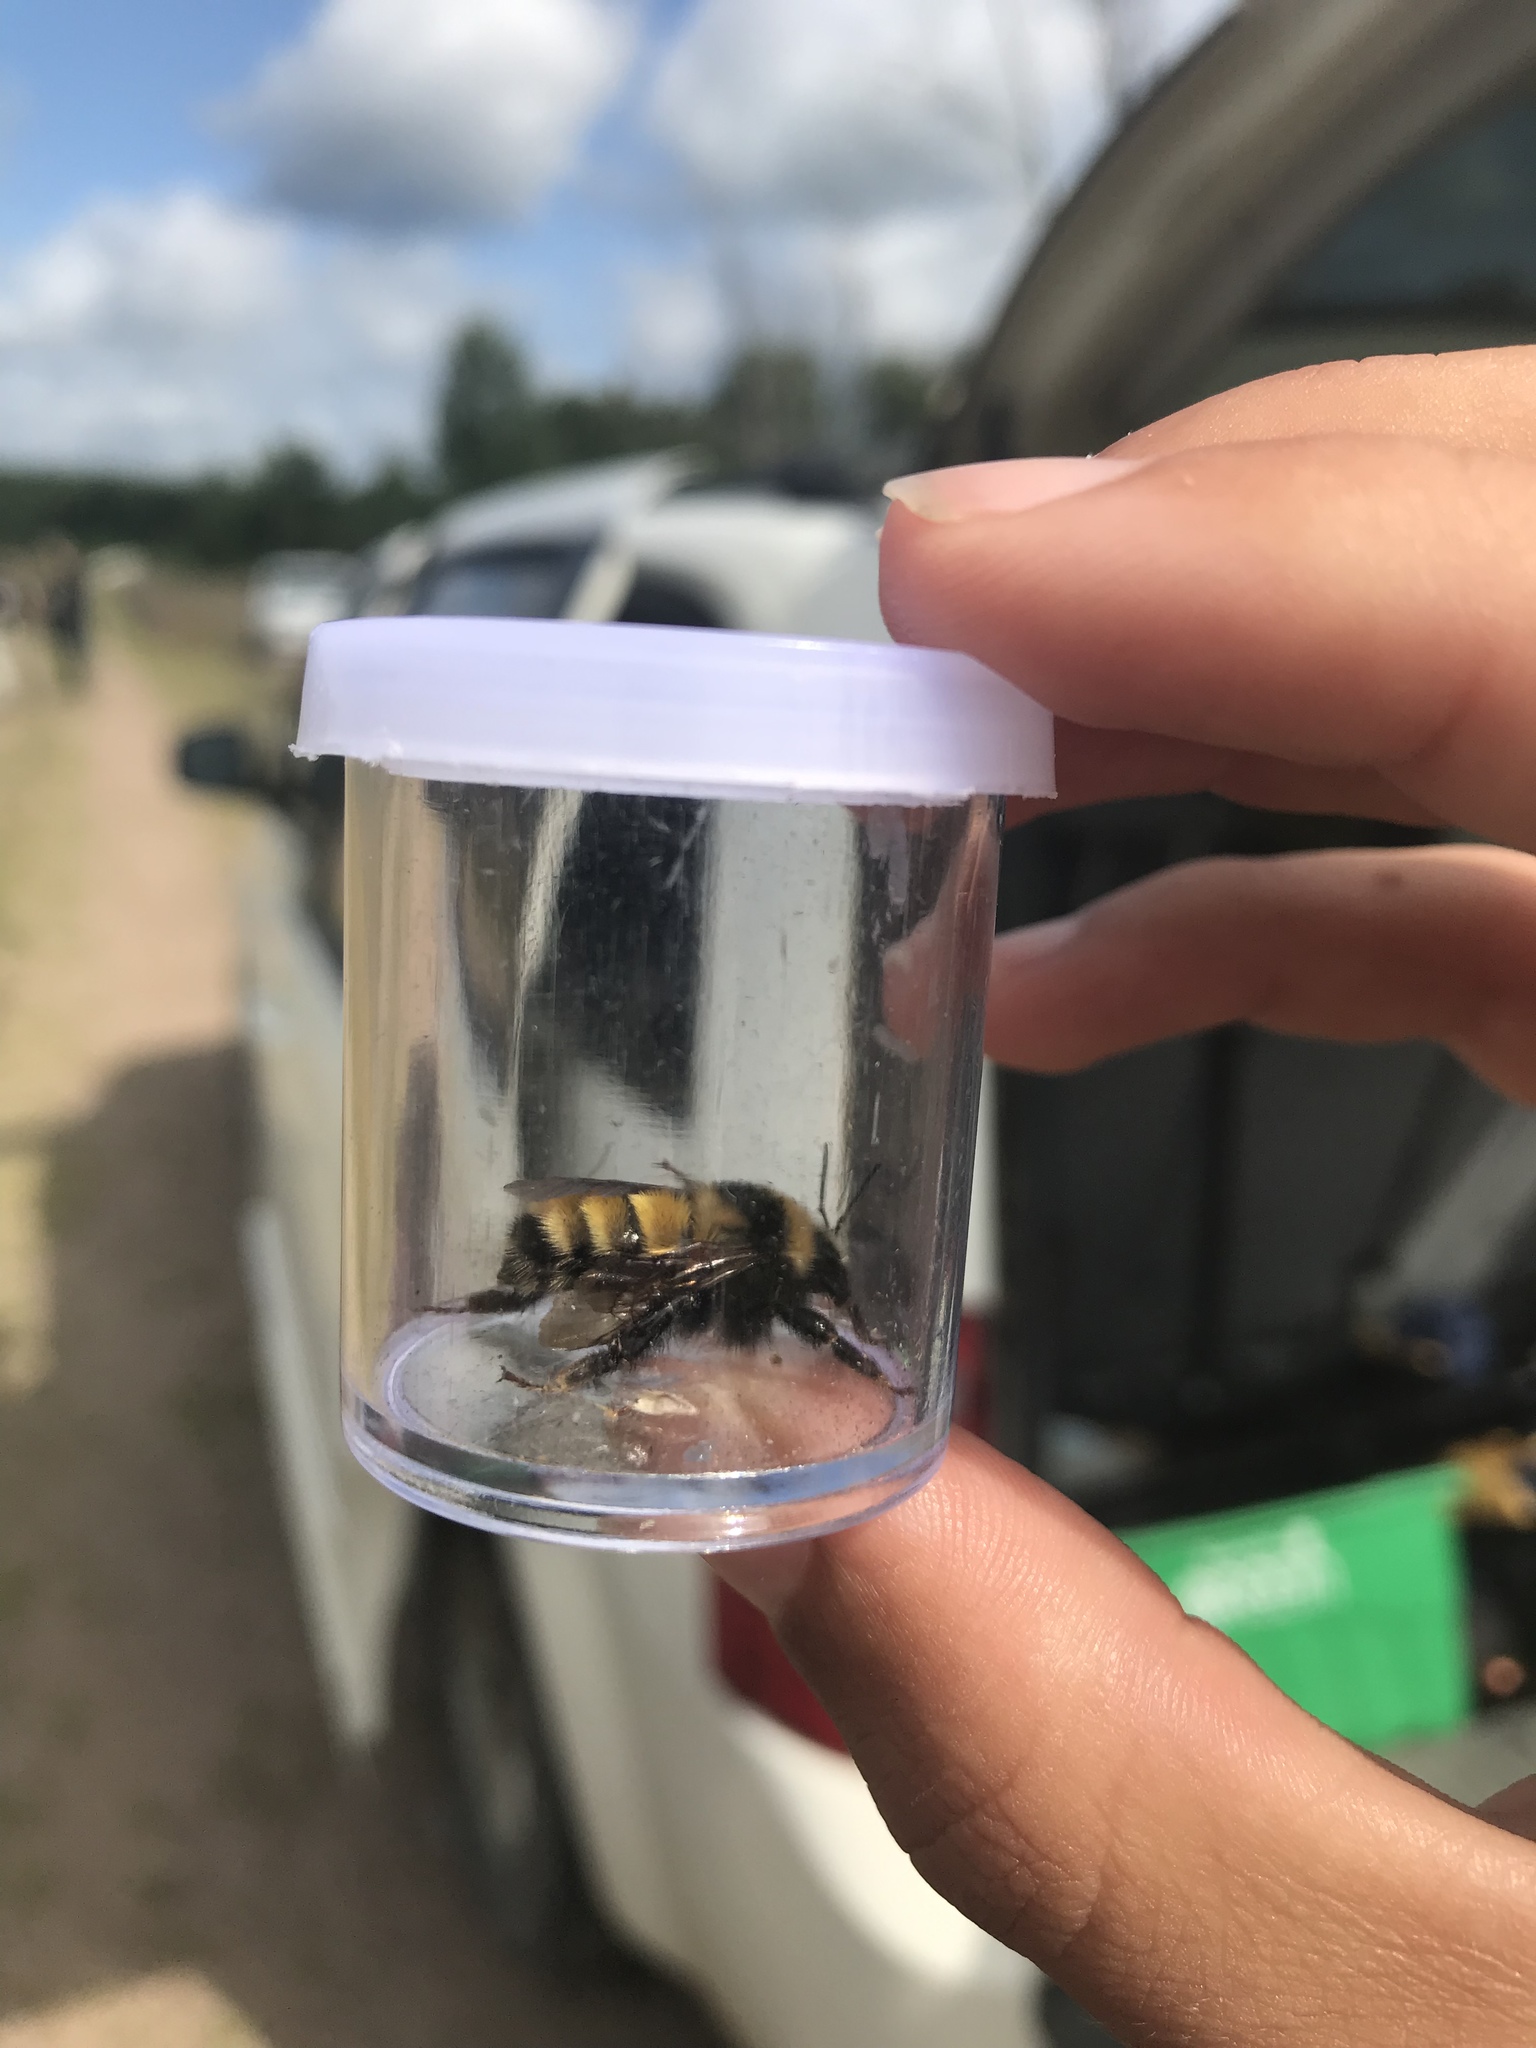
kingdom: Animalia
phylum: Arthropoda
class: Insecta
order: Hymenoptera
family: Apidae
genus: Bombus
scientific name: Bombus borealis
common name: Northern amber bumble bee
